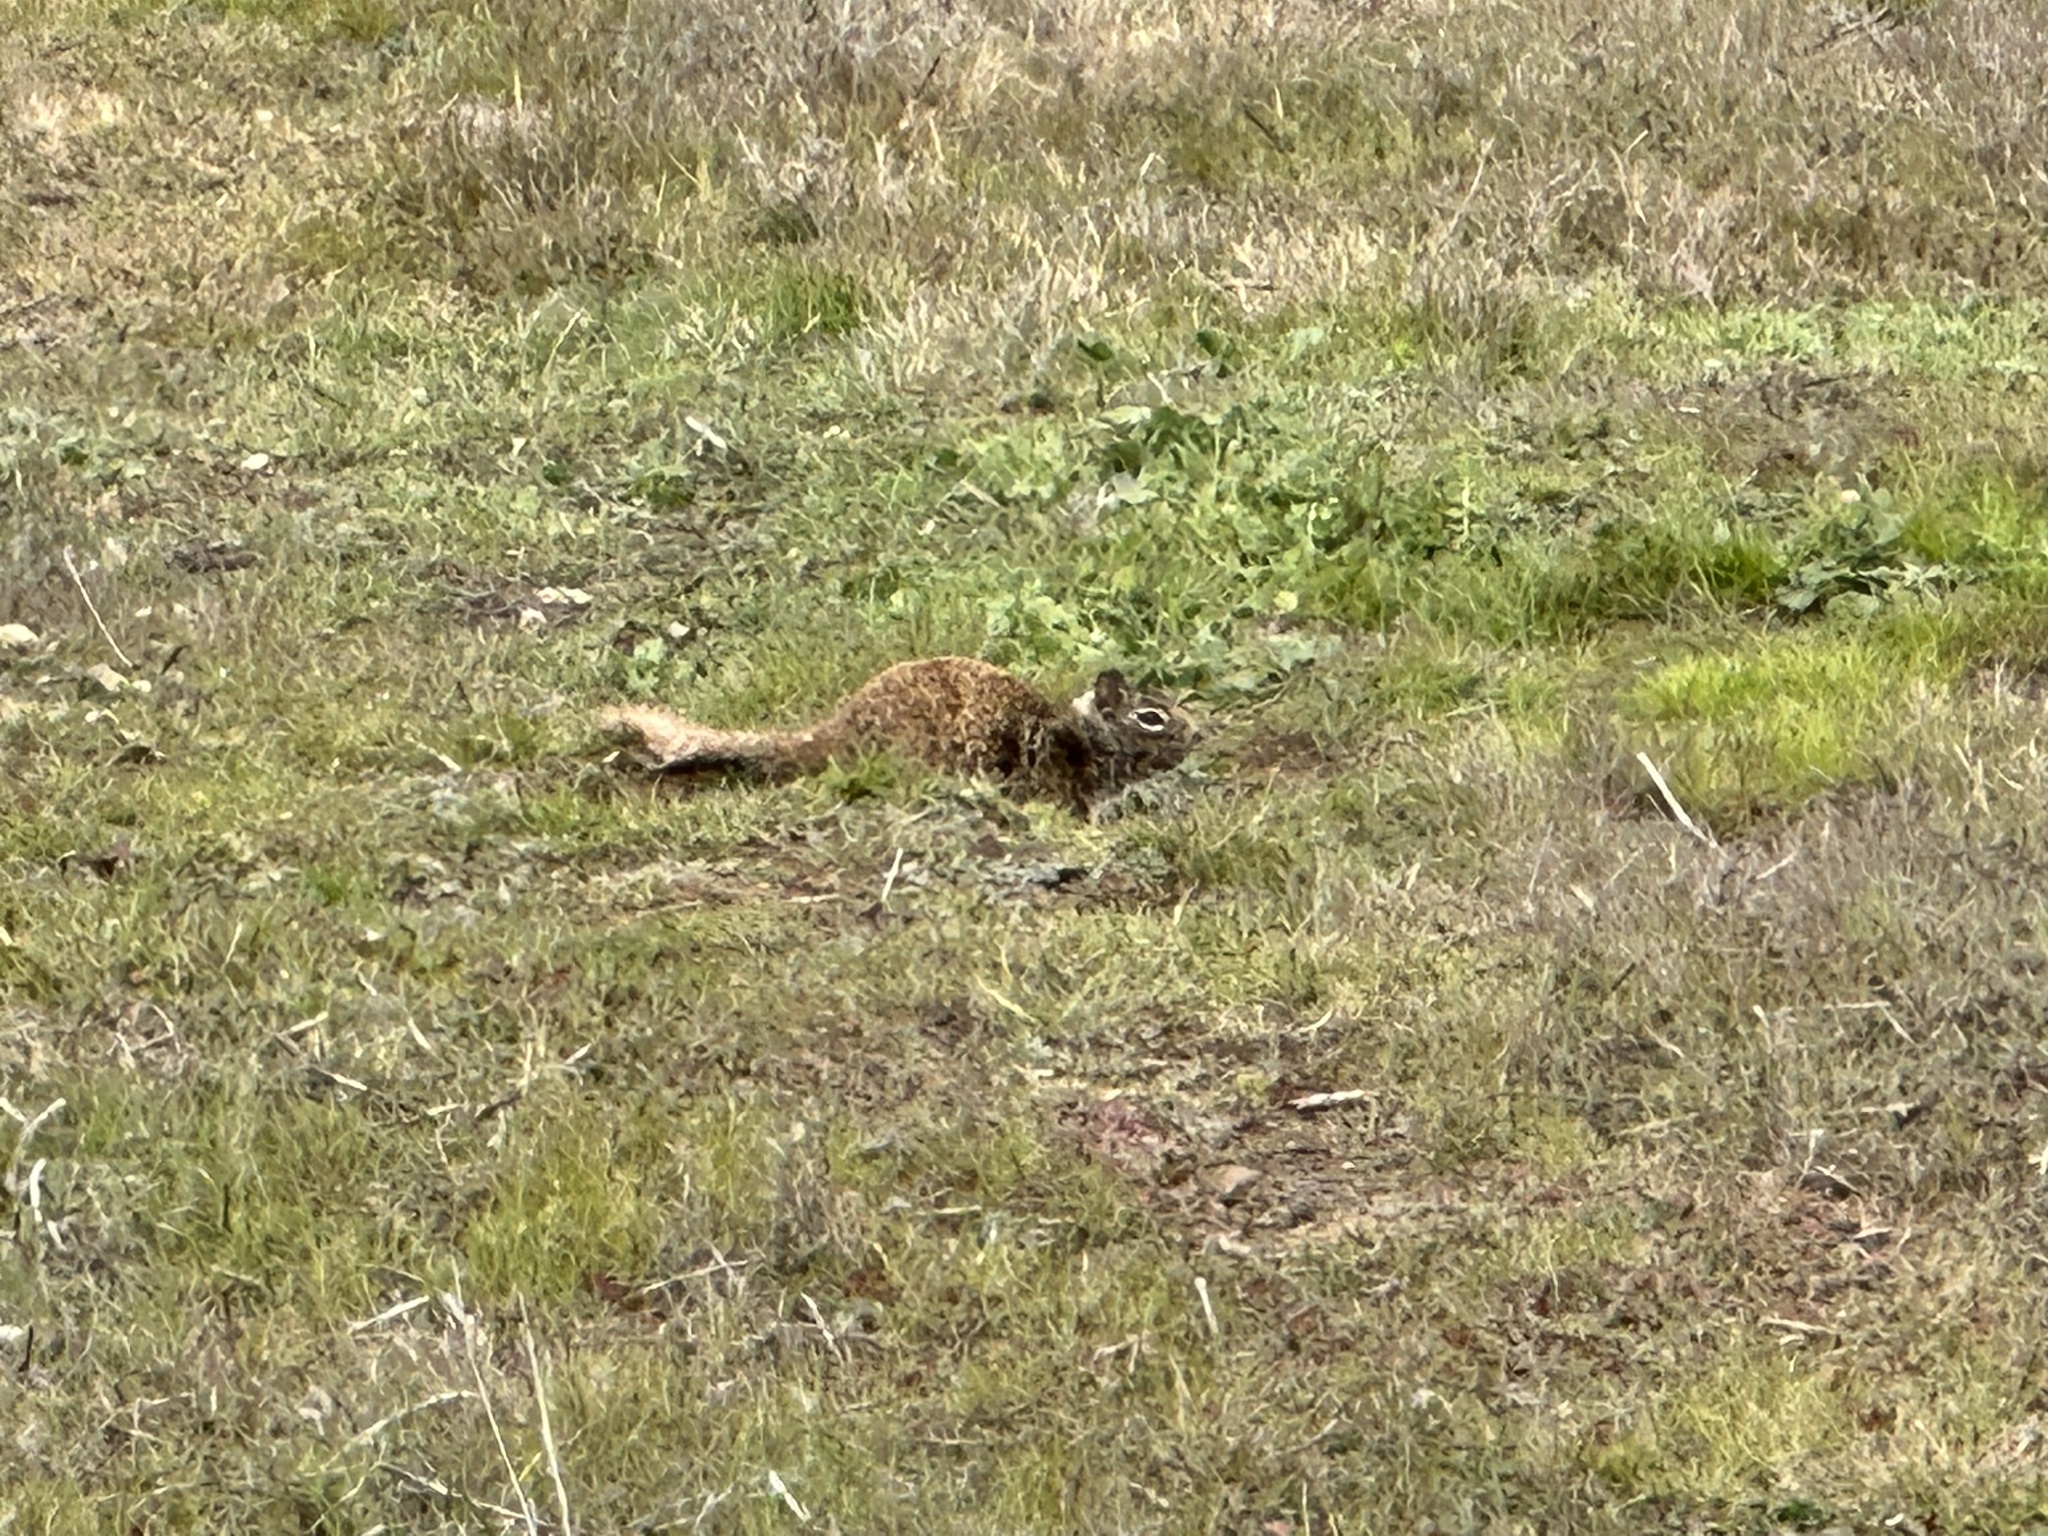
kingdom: Animalia
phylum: Chordata
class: Mammalia
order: Rodentia
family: Sciuridae
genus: Otospermophilus
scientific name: Otospermophilus beecheyi
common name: California ground squirrel
